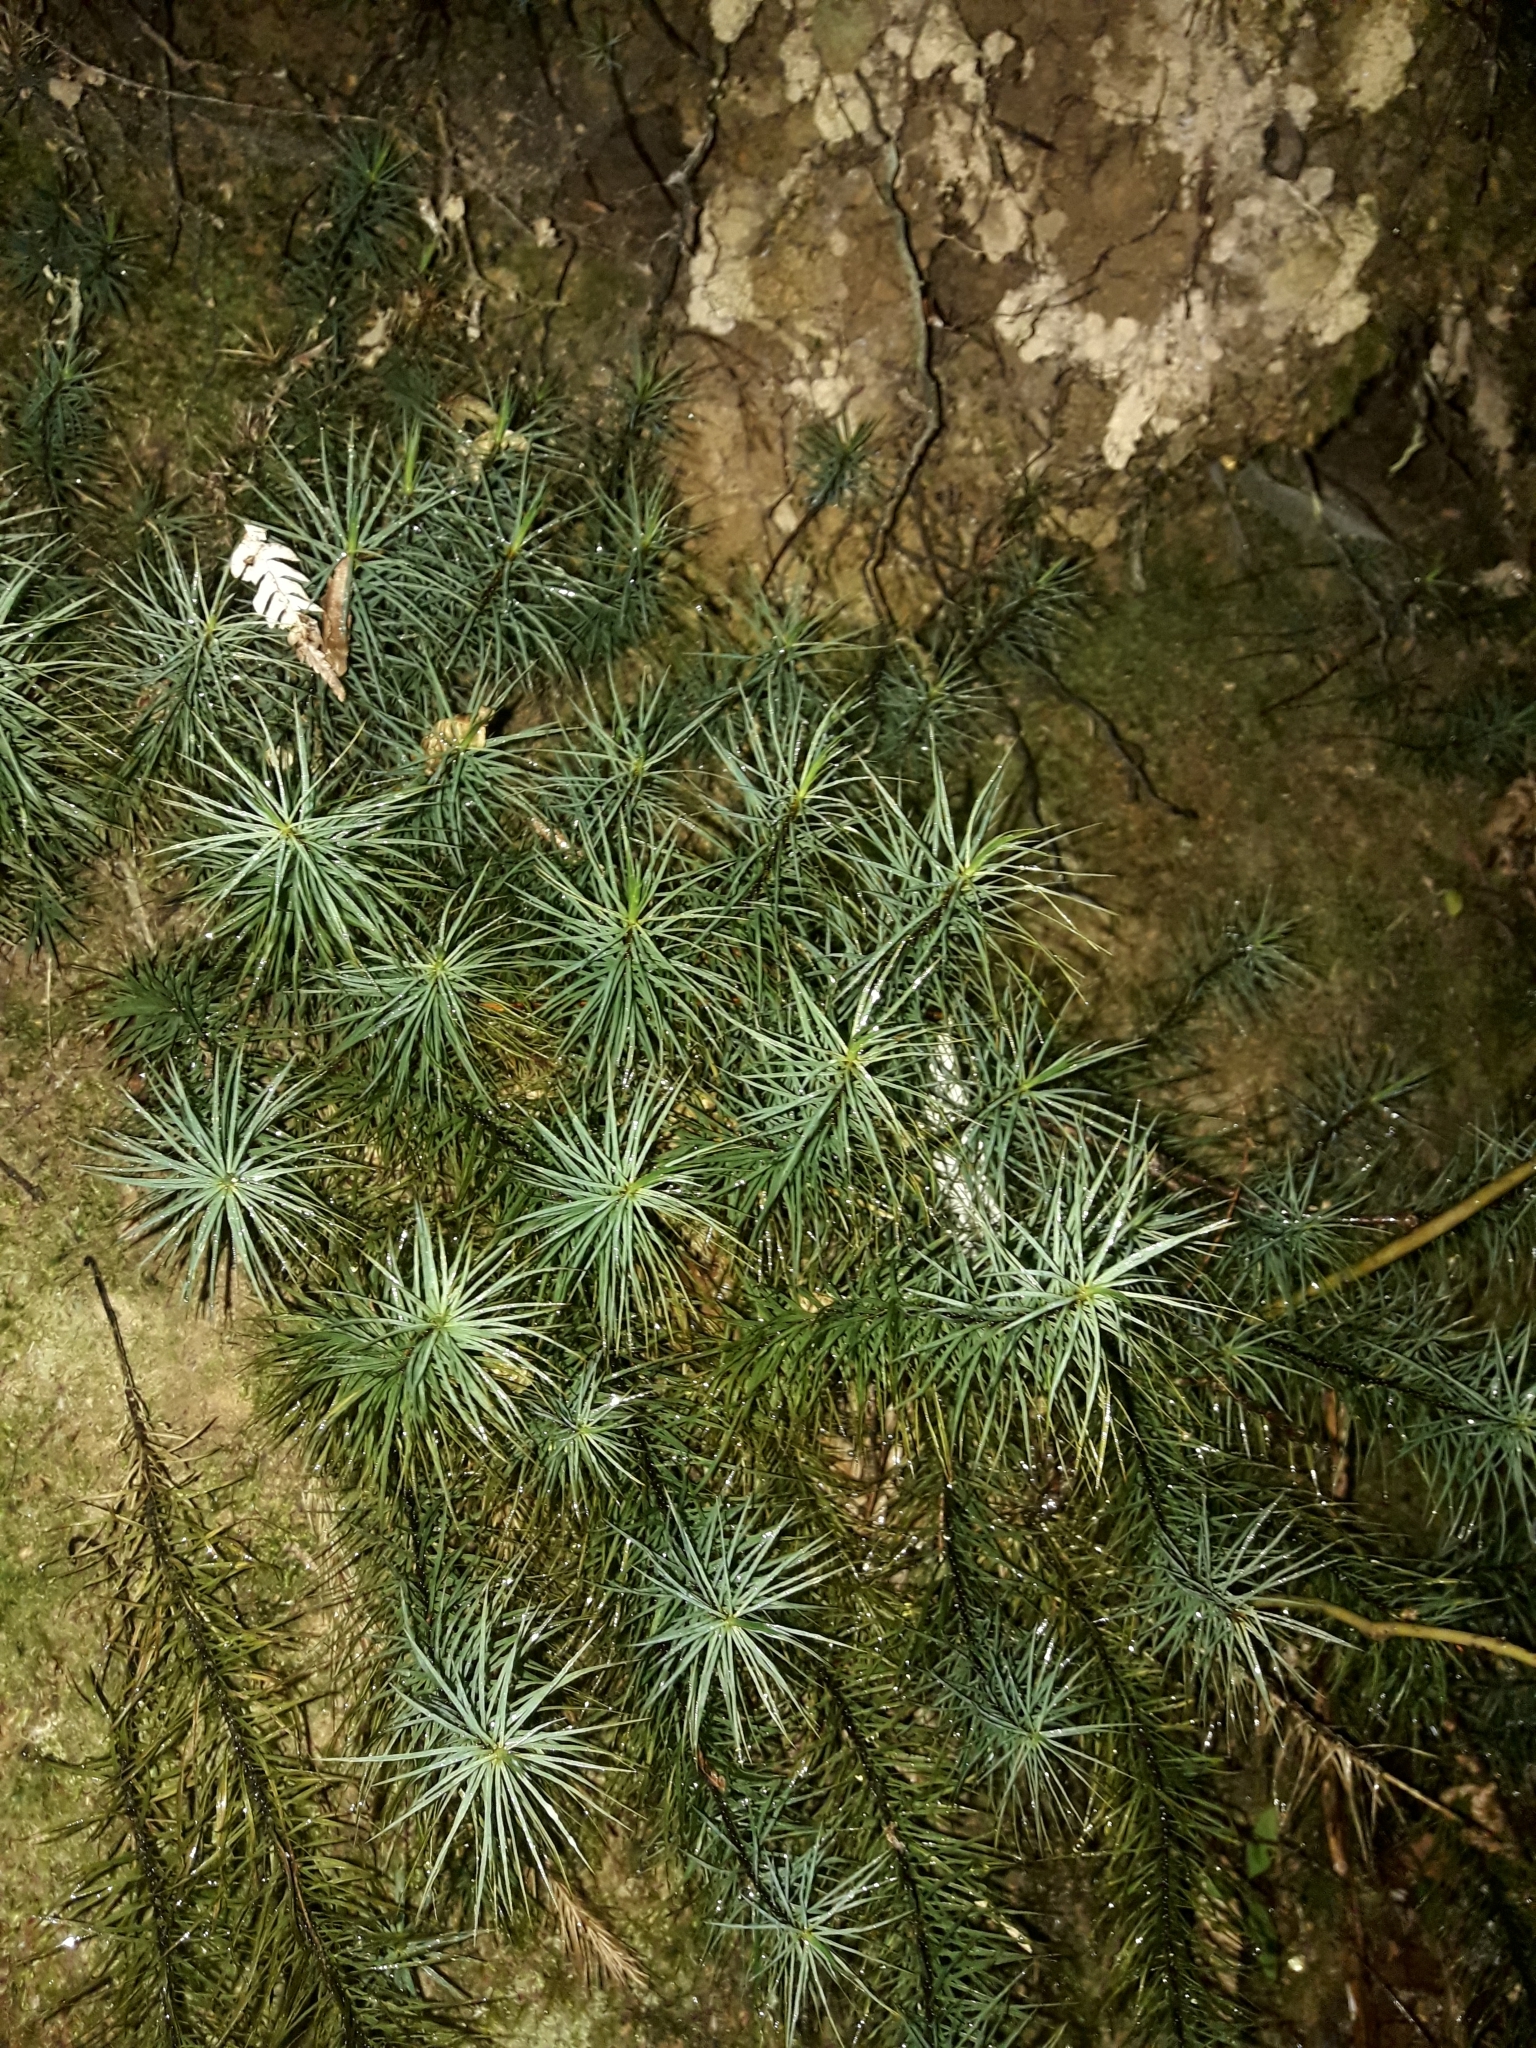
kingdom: Plantae
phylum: Bryophyta
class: Polytrichopsida
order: Polytrichales
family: Polytrichaceae
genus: Dawsonia
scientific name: Dawsonia superba
